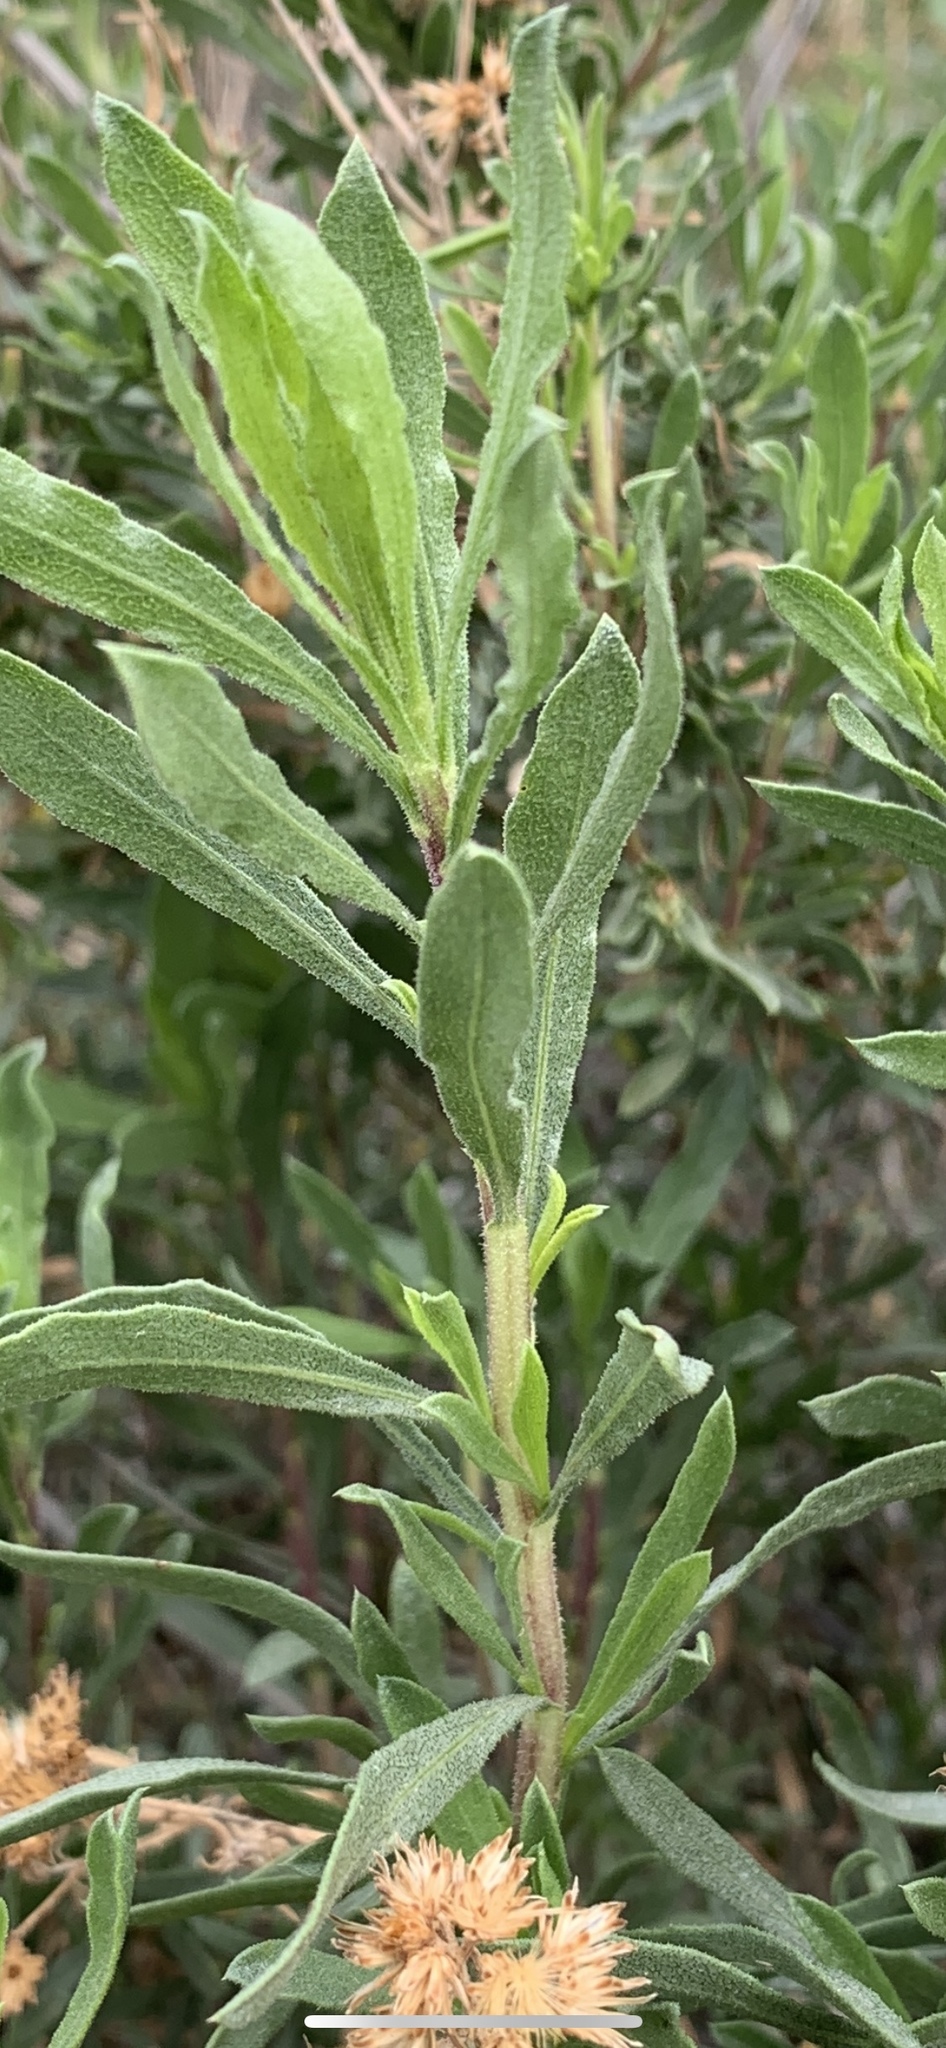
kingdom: Plantae
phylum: Tracheophyta
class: Magnoliopsida
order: Asterales
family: Asteraceae
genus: Isocoma
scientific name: Isocoma acradenia
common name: Alkali jimmyweed
